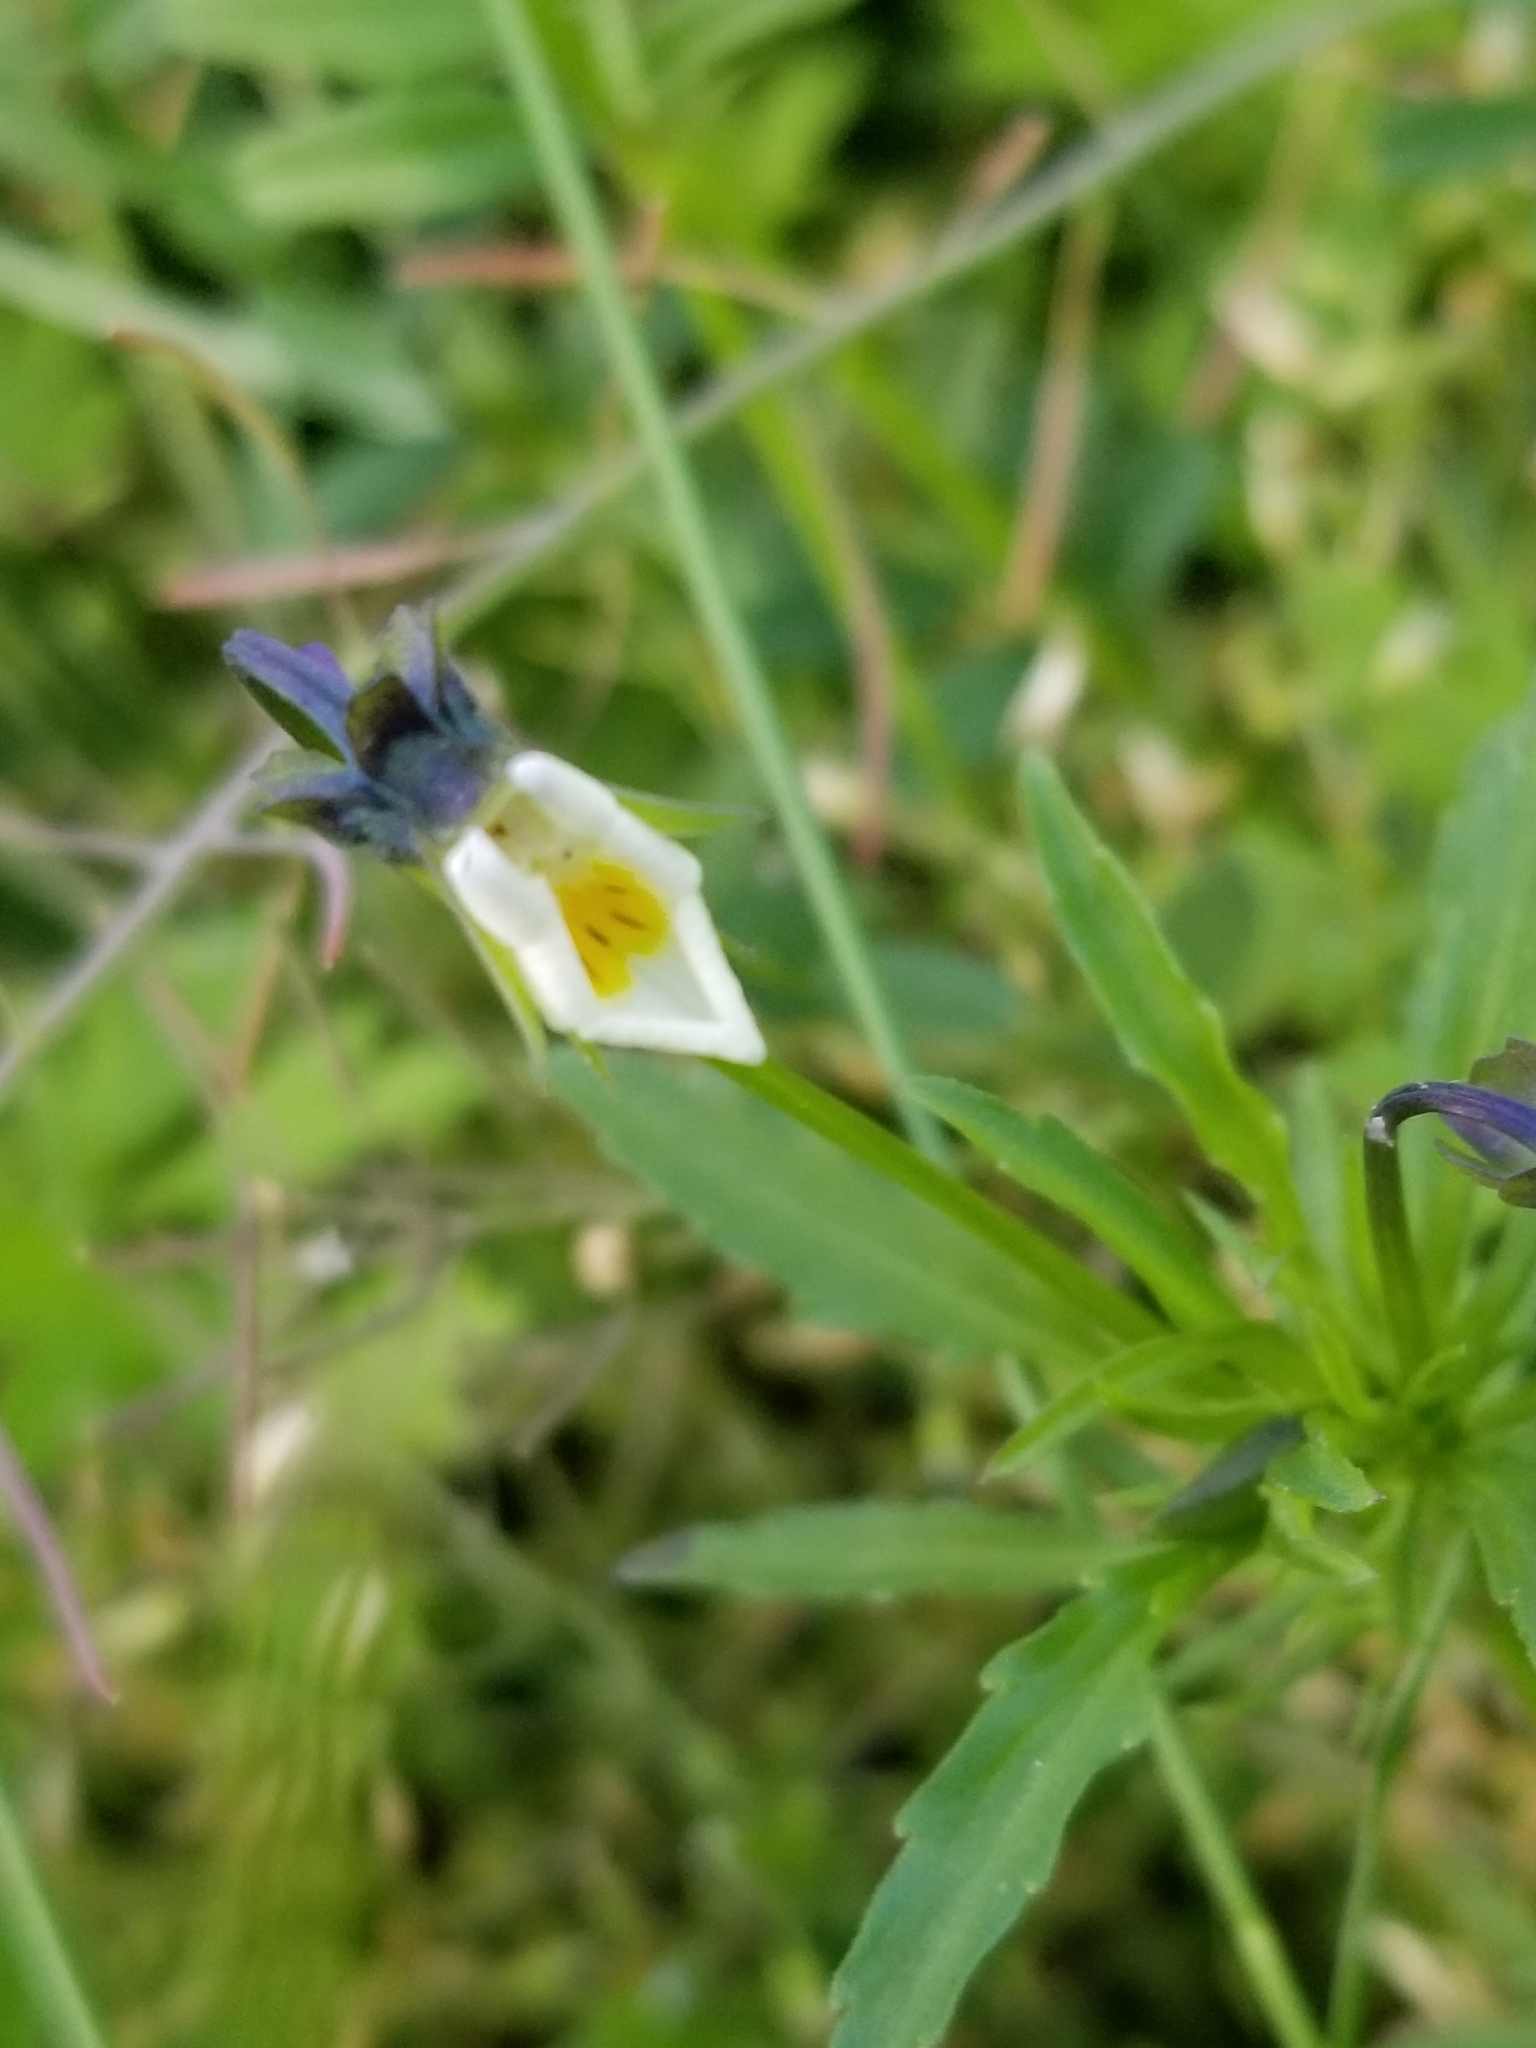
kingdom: Plantae
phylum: Tracheophyta
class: Magnoliopsida
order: Malpighiales
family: Violaceae
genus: Viola
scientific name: Viola arvensis
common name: Field pansy
